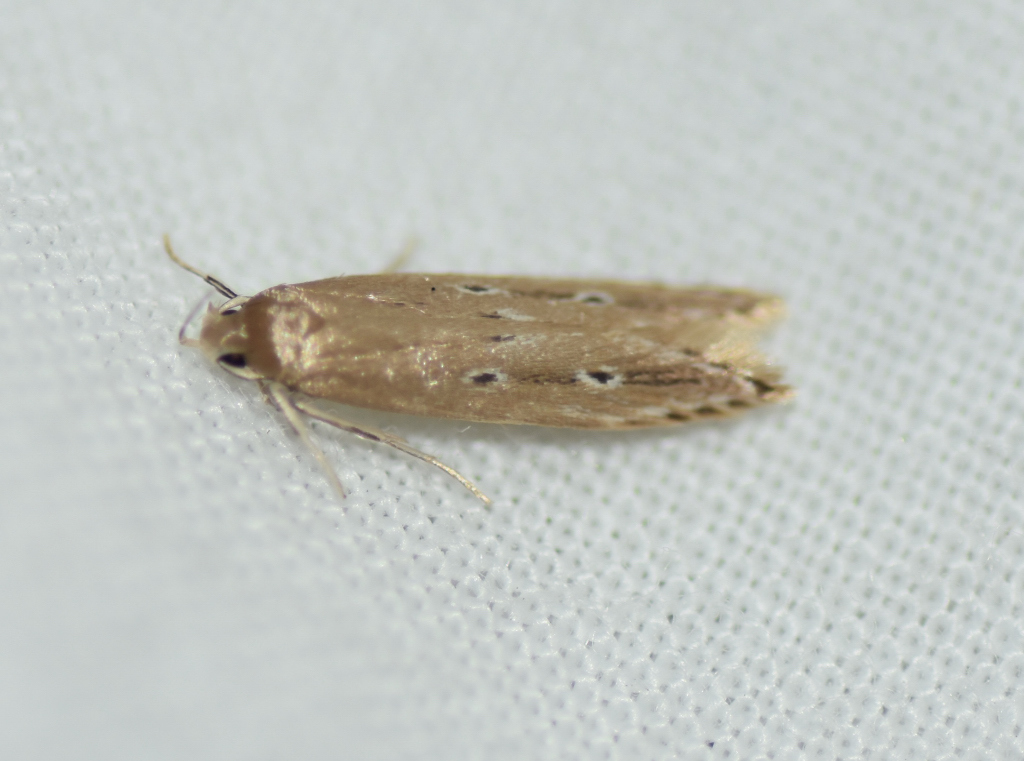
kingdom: Animalia
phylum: Arthropoda
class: Insecta
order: Lepidoptera
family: Cosmopterigidae
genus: Limnaecia
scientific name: Limnaecia phragmitella
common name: Bulrush cosmet
